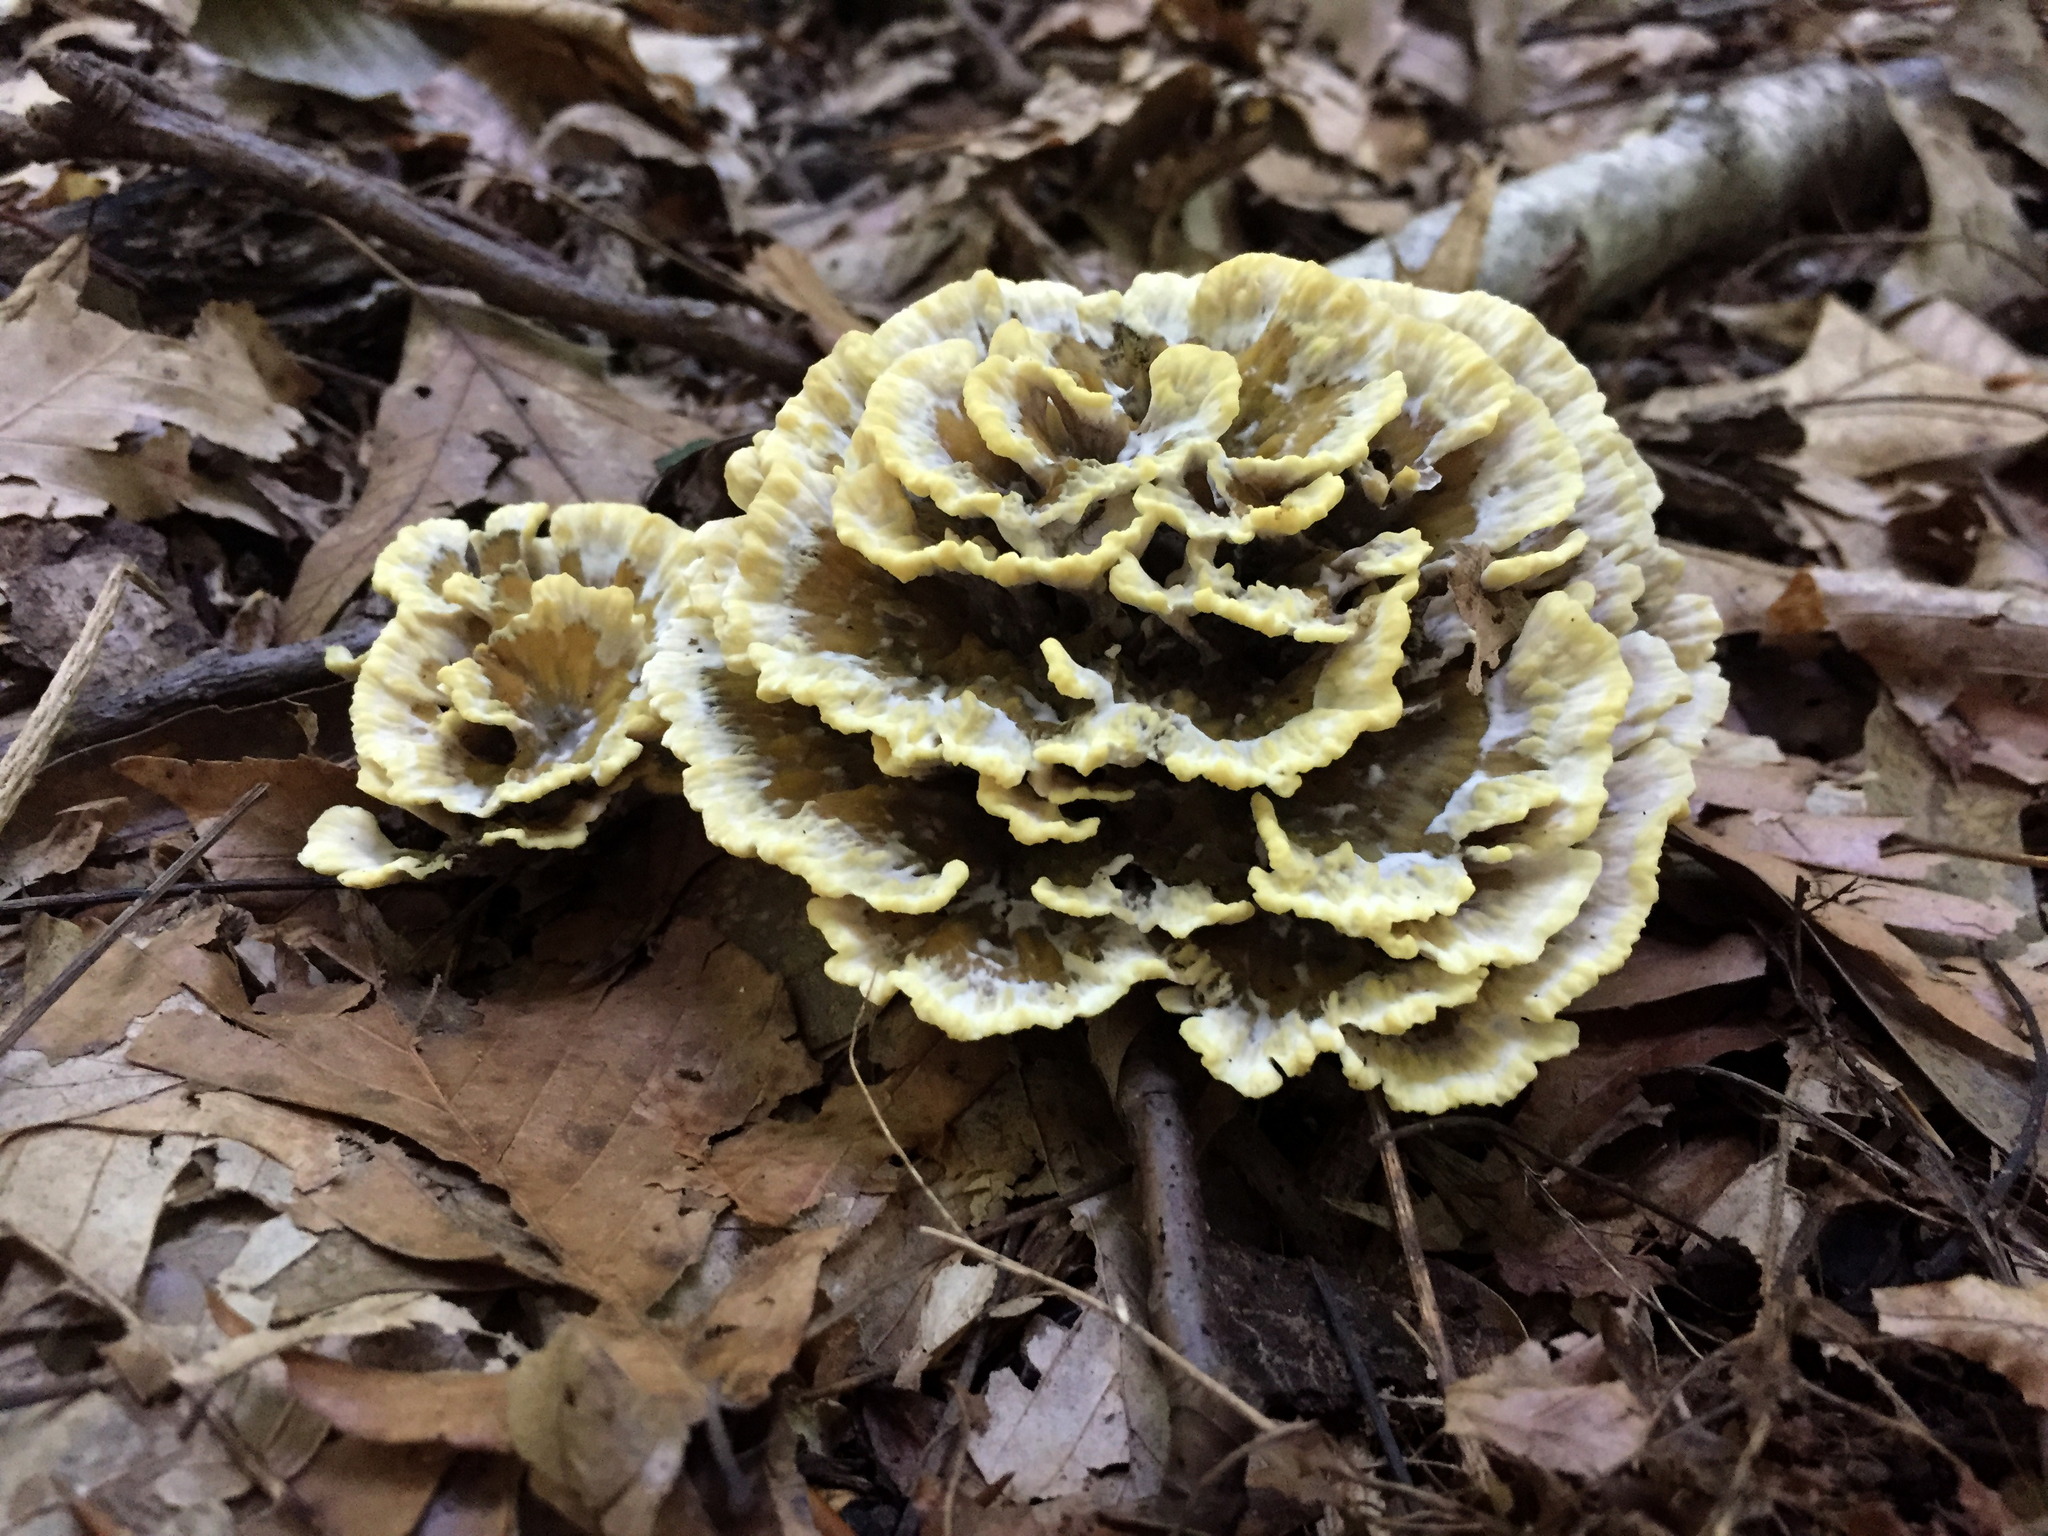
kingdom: Fungi
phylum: Basidiomycota
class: Agaricomycetes
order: Thelephorales
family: Thelephoraceae
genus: Thelephora
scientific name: Thelephora vialis
